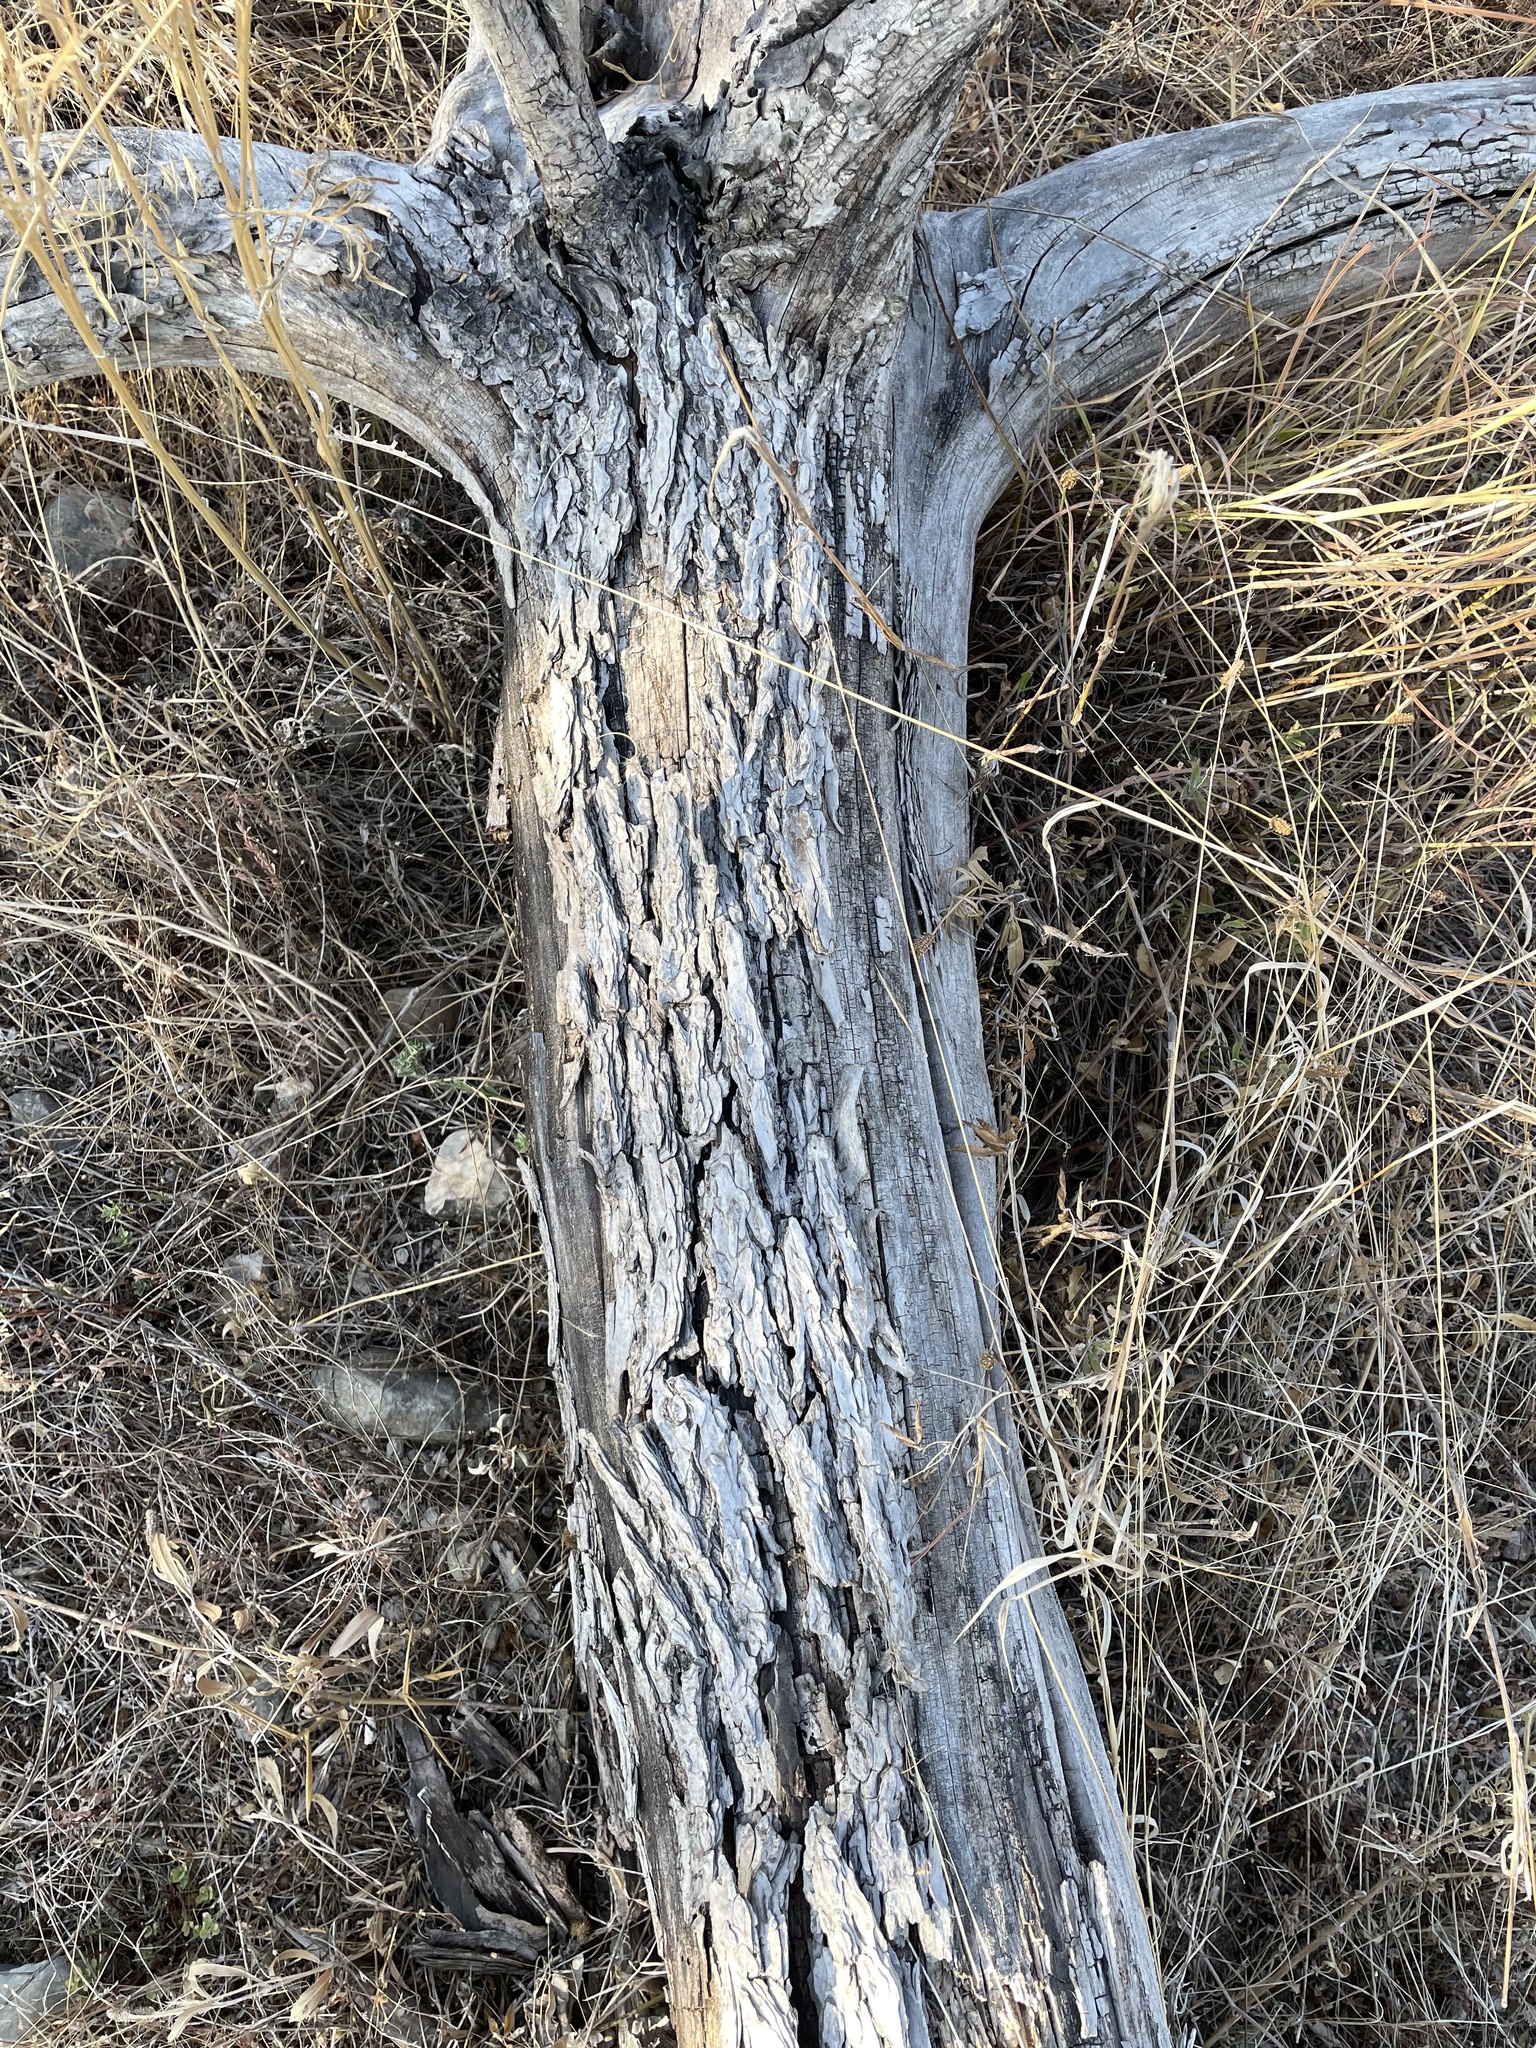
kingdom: Plantae
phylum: Tracheophyta
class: Magnoliopsida
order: Rosales
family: Ulmaceae
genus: Ulmus
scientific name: Ulmus crassifolia
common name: Basket elm
